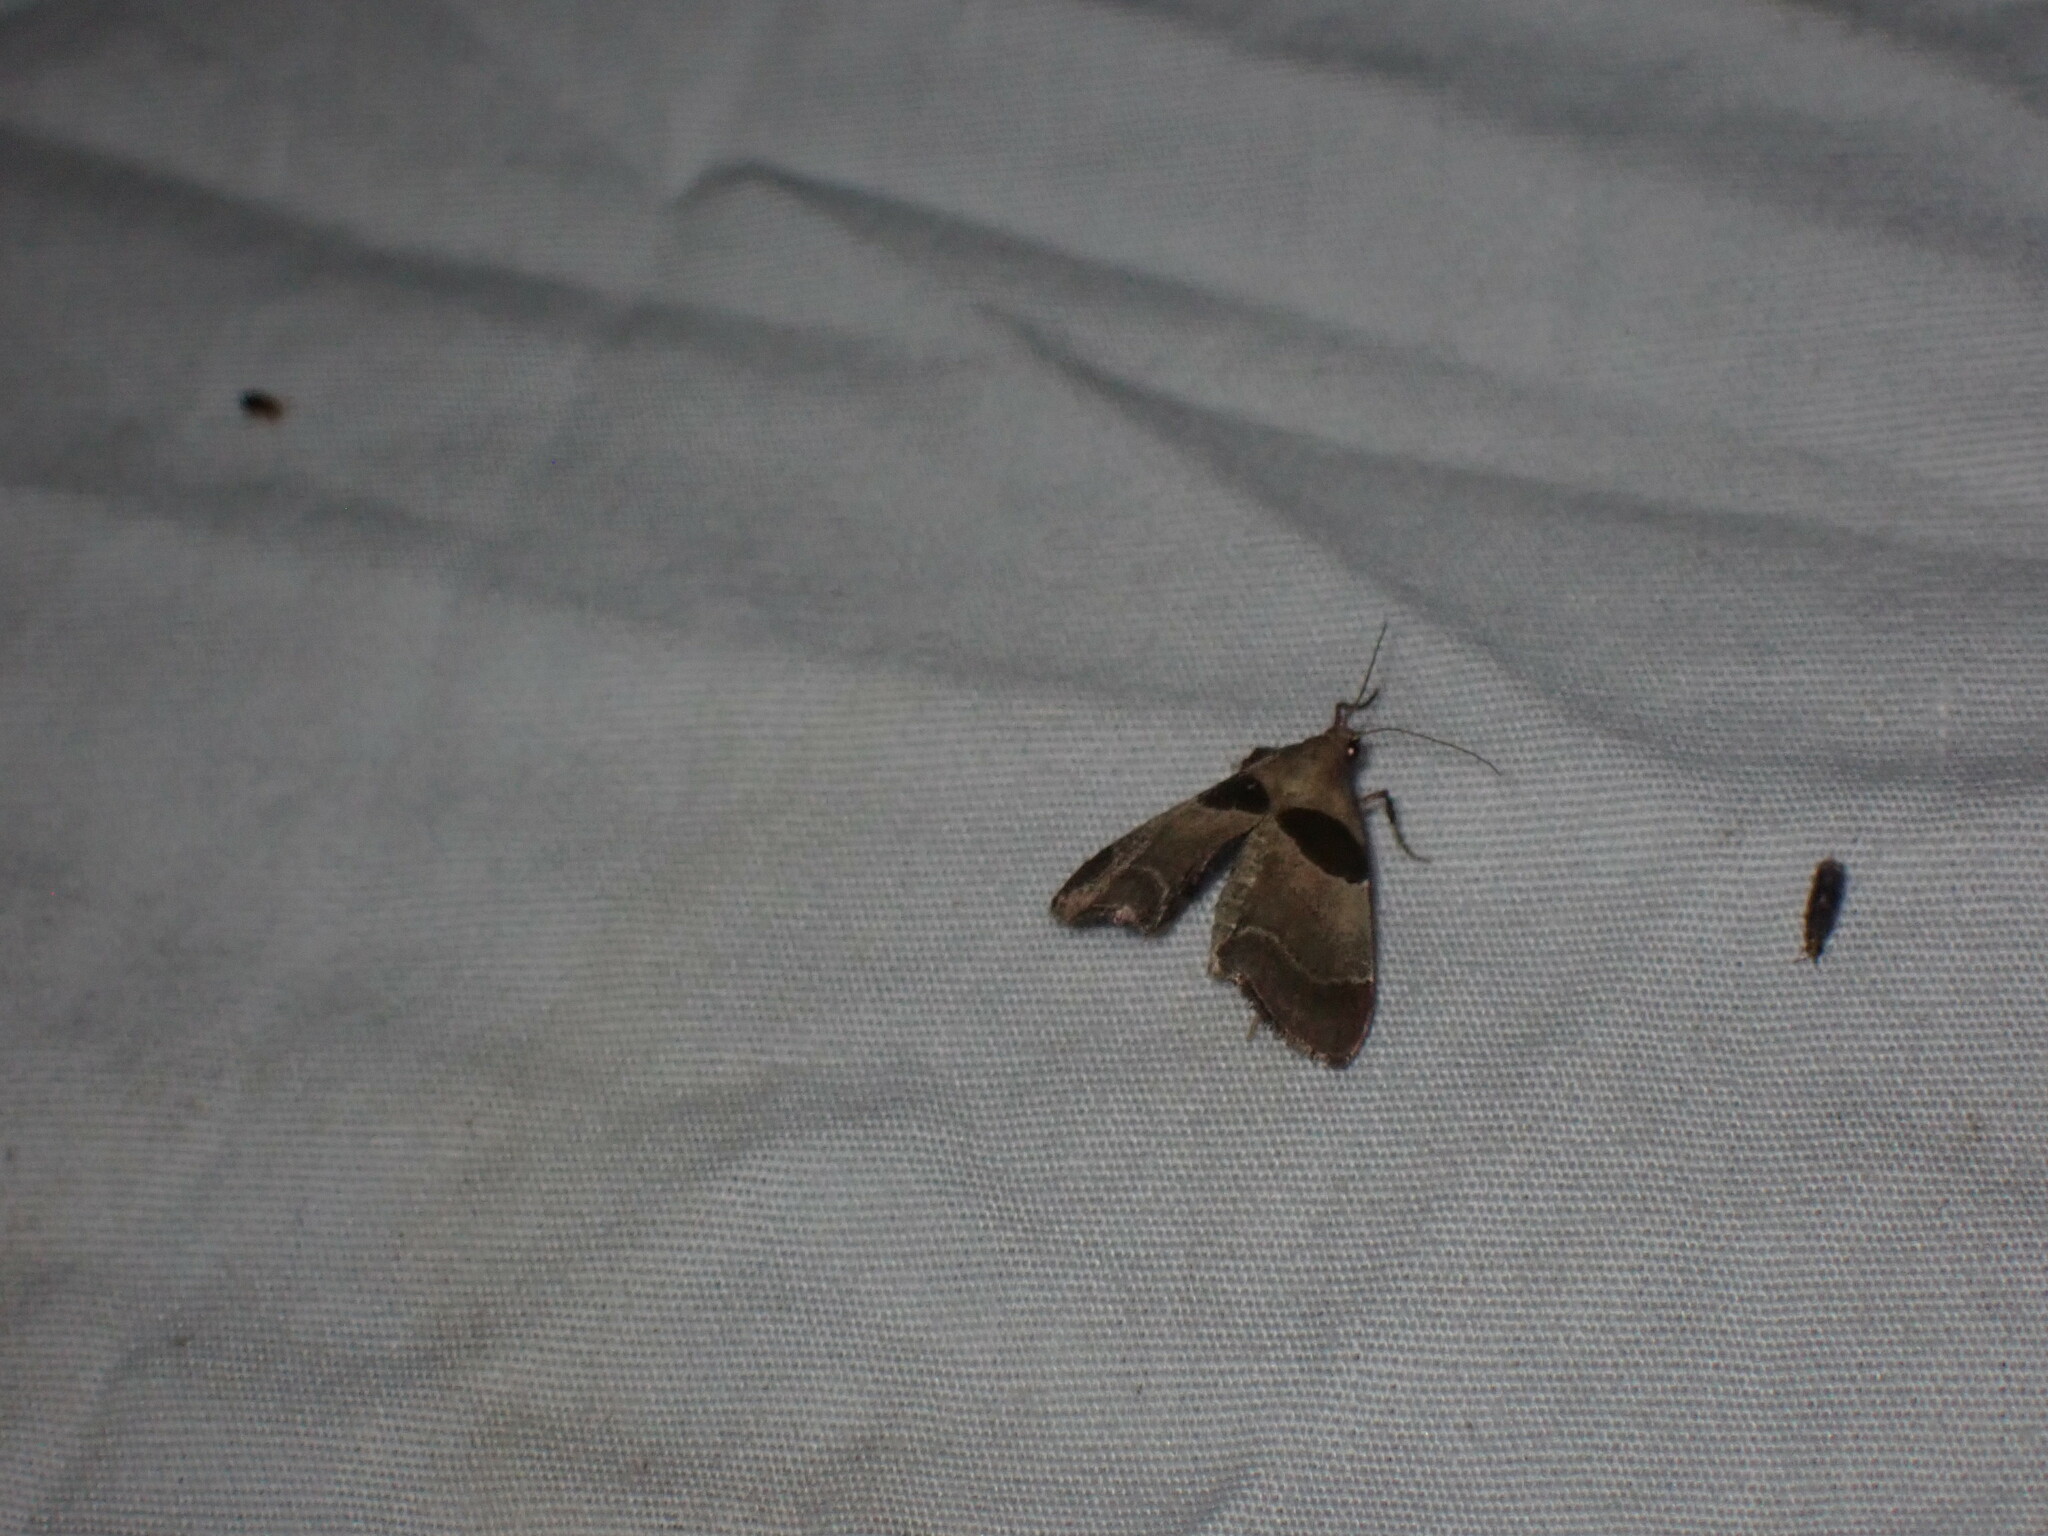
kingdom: Animalia
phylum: Arthropoda
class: Insecta
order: Lepidoptera
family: Pyralidae
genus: Tosale
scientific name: Tosale oviplagalis
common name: Dimorphic tosale moth
